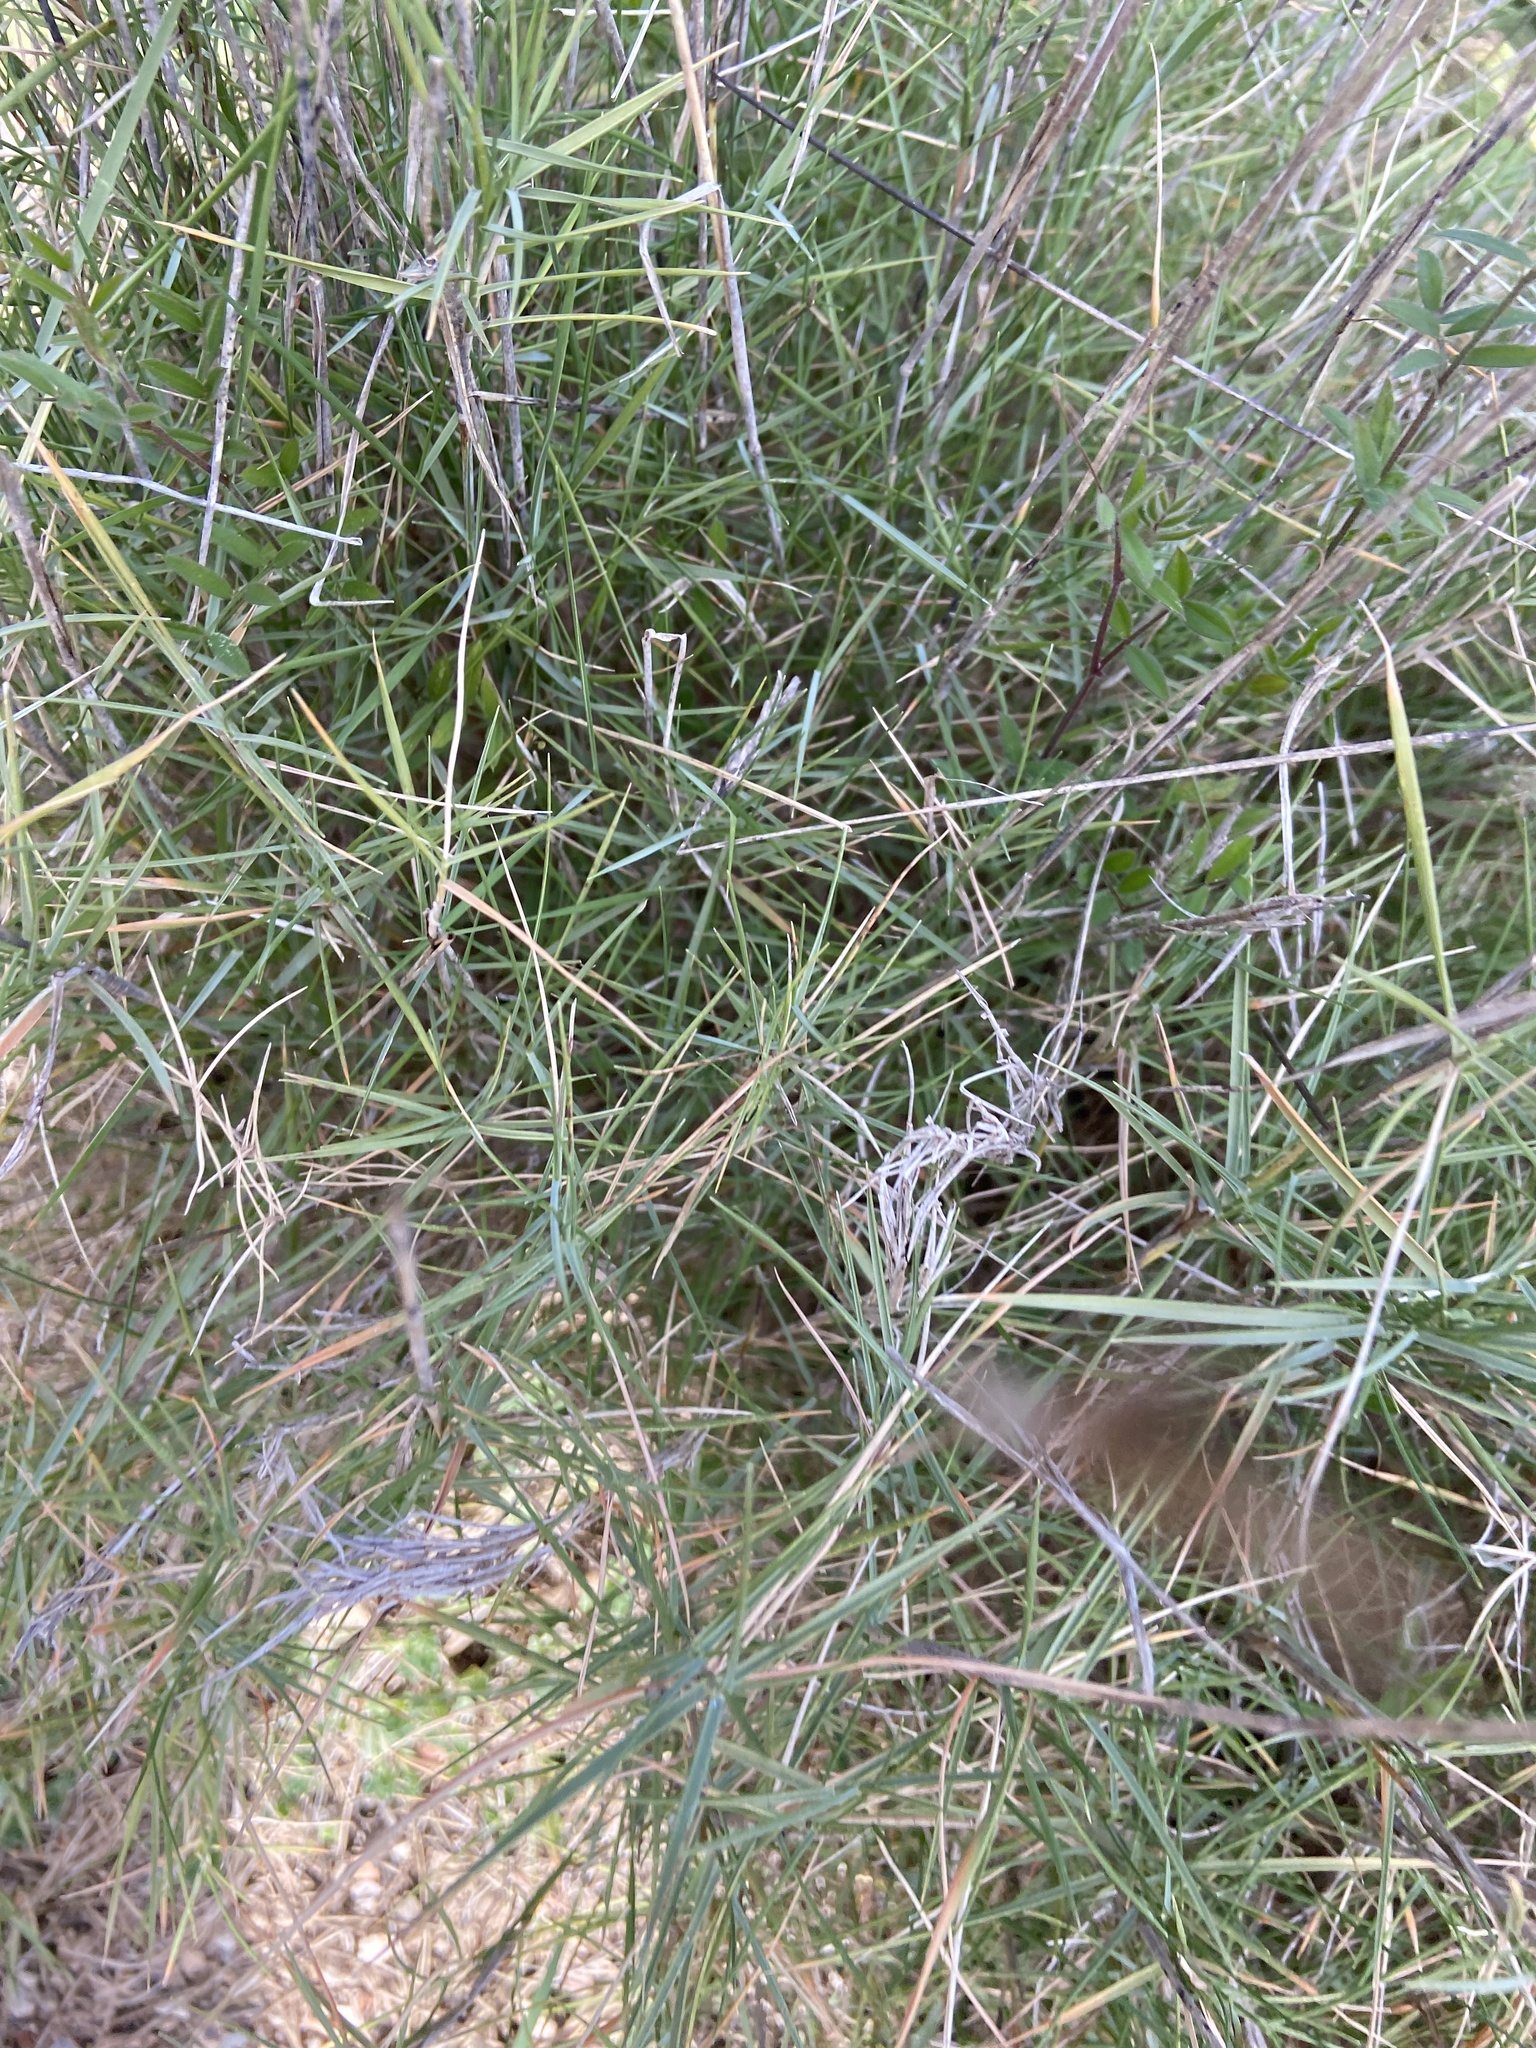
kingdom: Plantae
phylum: Tracheophyta
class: Liliopsida
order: Poales
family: Poaceae
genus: Brachypodium
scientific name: Brachypodium retusum
